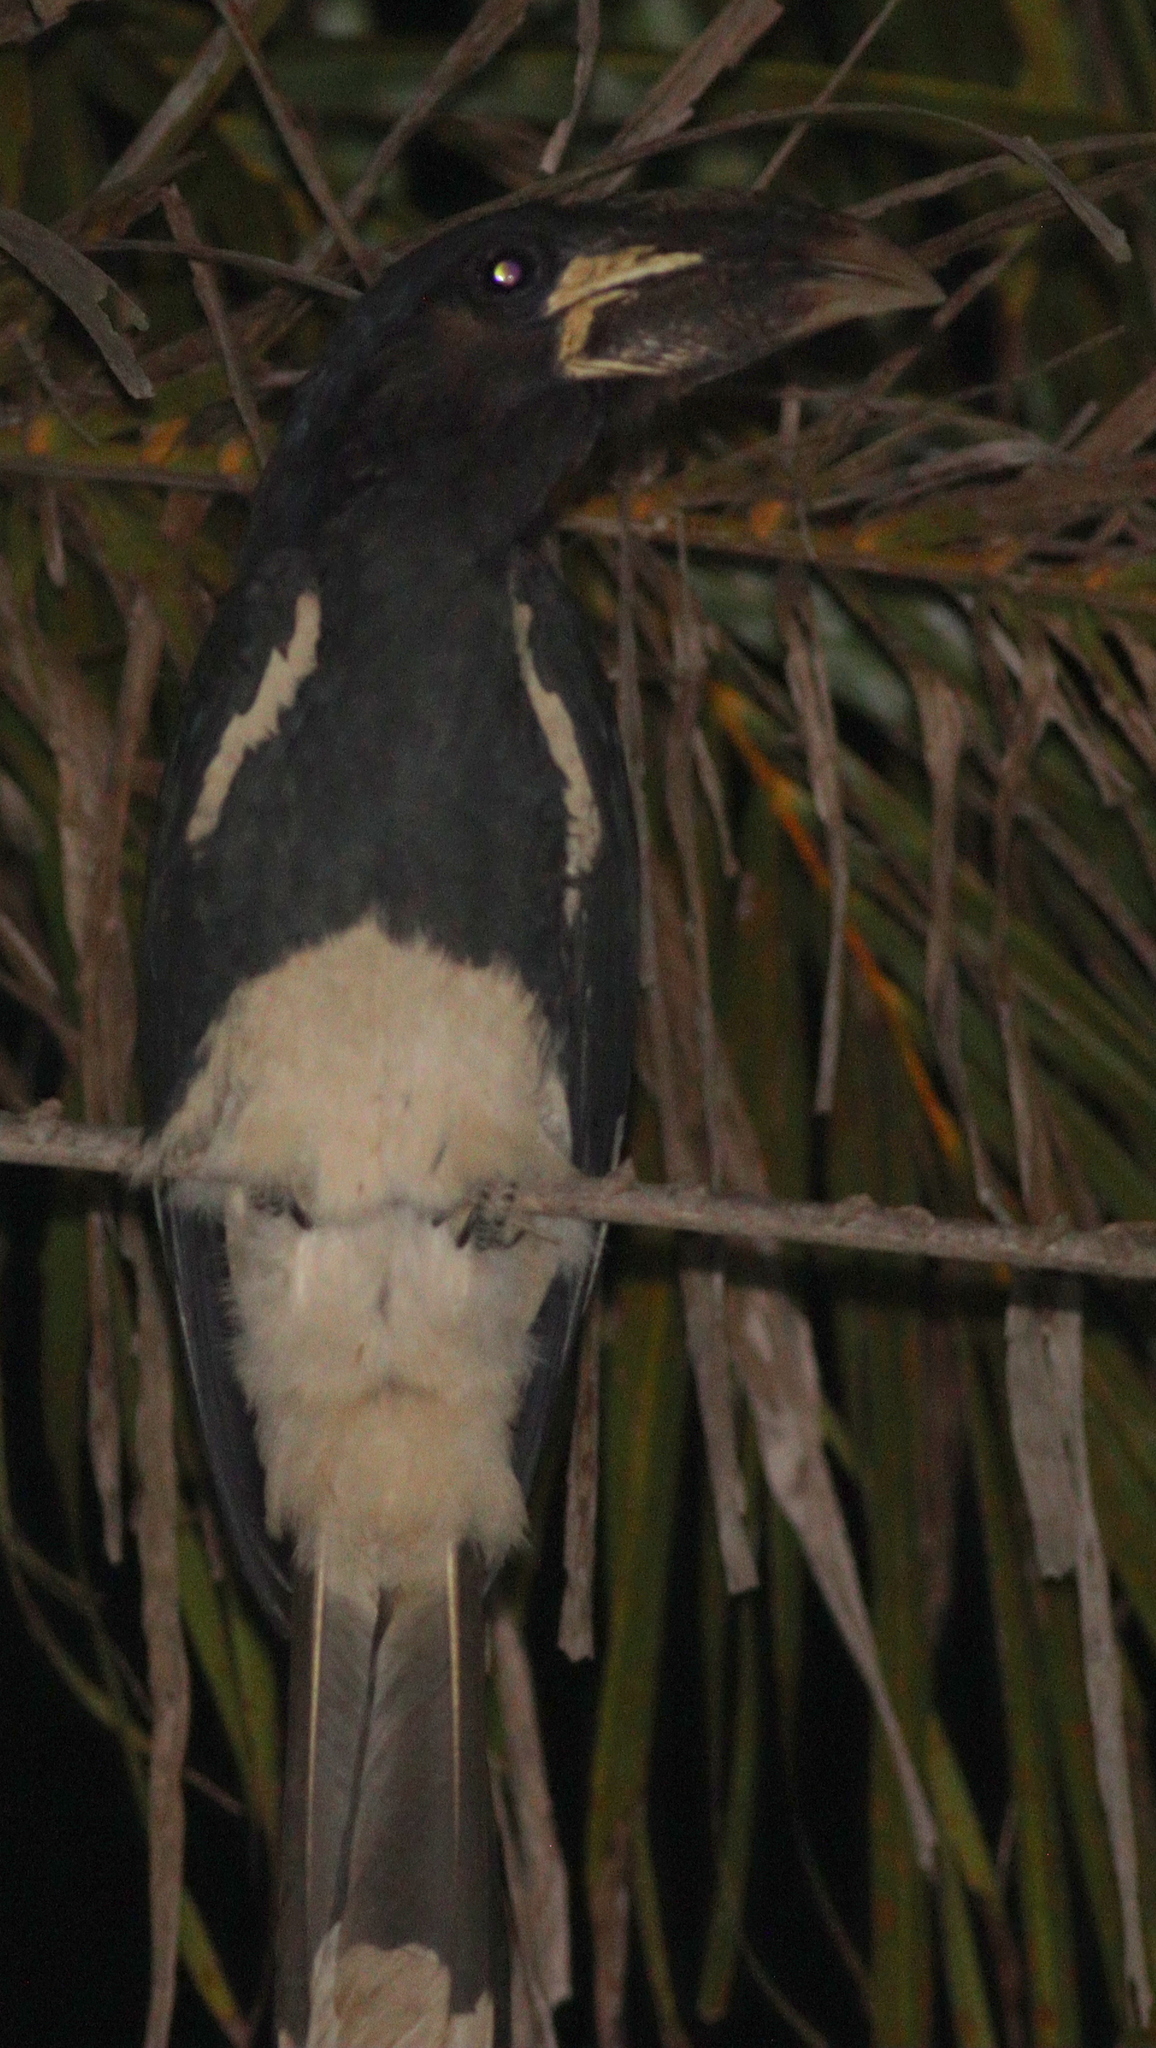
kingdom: Animalia
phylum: Chordata
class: Aves
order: Bucerotiformes
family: Bucerotidae
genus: Bycanistes
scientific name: Bycanistes fistulator
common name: Piping hornbill
